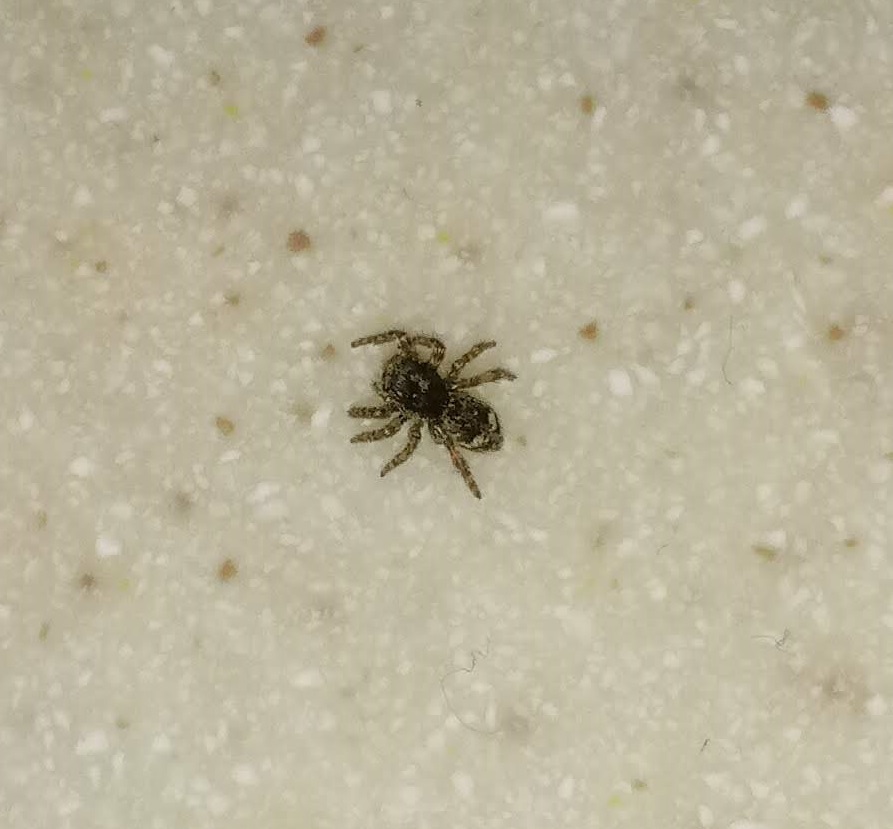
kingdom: Animalia
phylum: Arthropoda
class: Arachnida
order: Araneae
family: Salticidae
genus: Attulus
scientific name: Attulus fasciger
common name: Asiatic wall jumping spider
